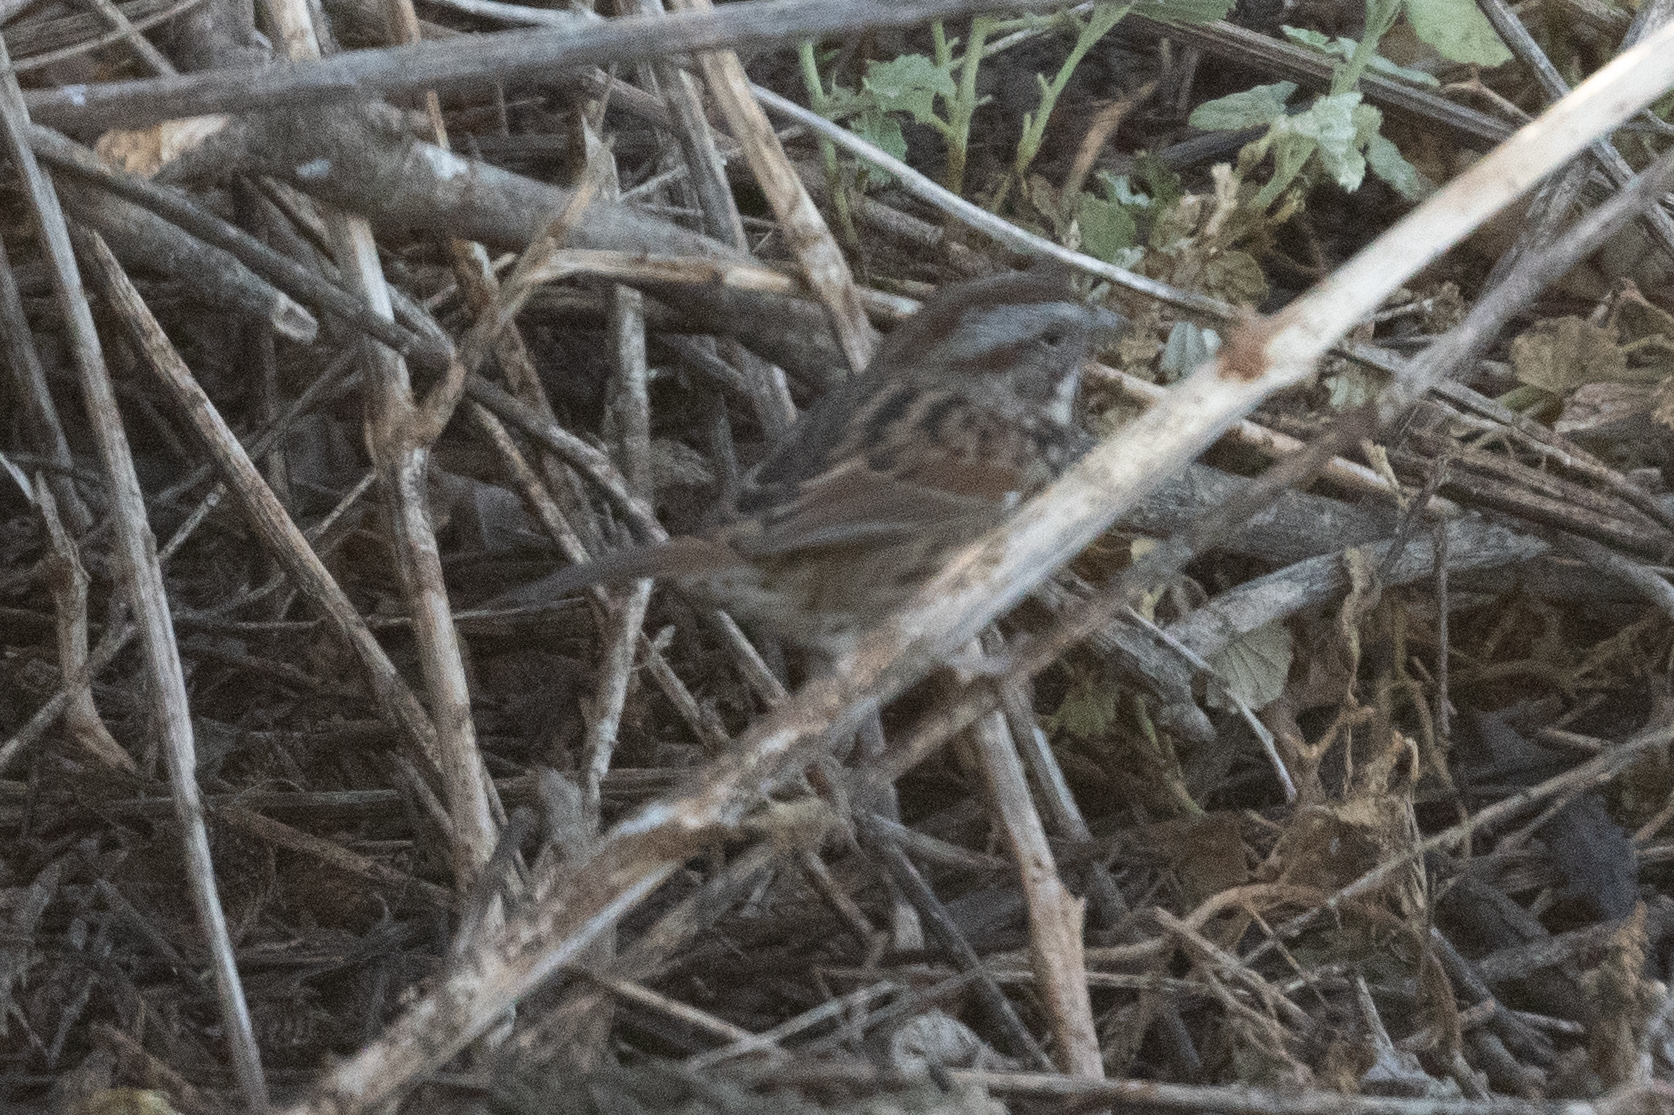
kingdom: Animalia
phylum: Chordata
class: Aves
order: Passeriformes
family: Passerellidae
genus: Melospiza
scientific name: Melospiza melodia
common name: Song sparrow
